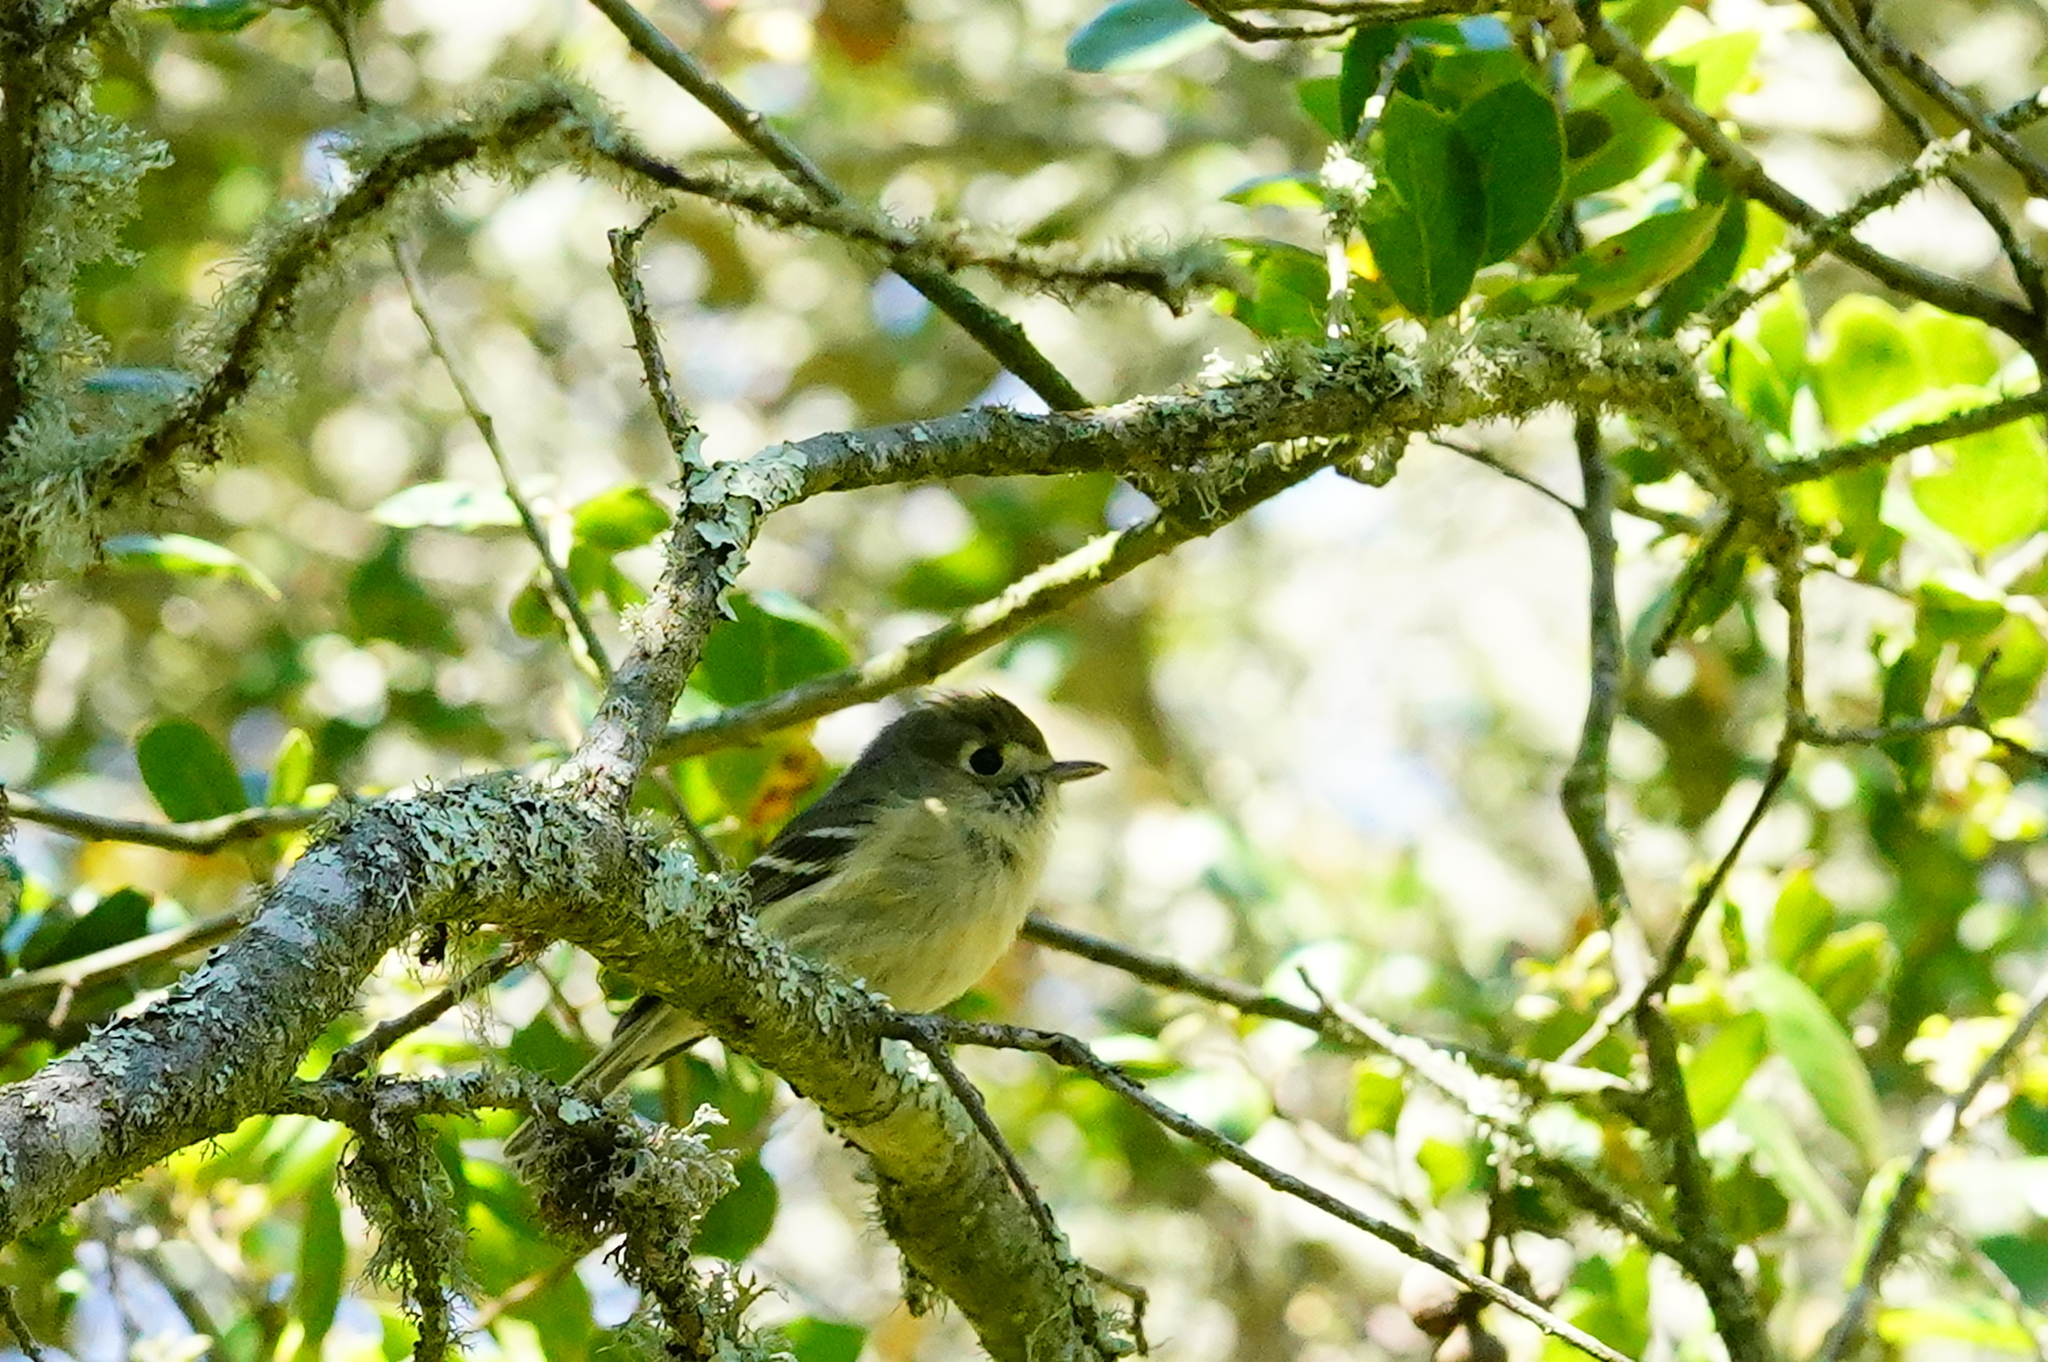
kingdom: Animalia
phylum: Chordata
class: Aves
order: Passeriformes
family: Vireonidae
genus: Vireo
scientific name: Vireo huttoni
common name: Hutton's vireo
